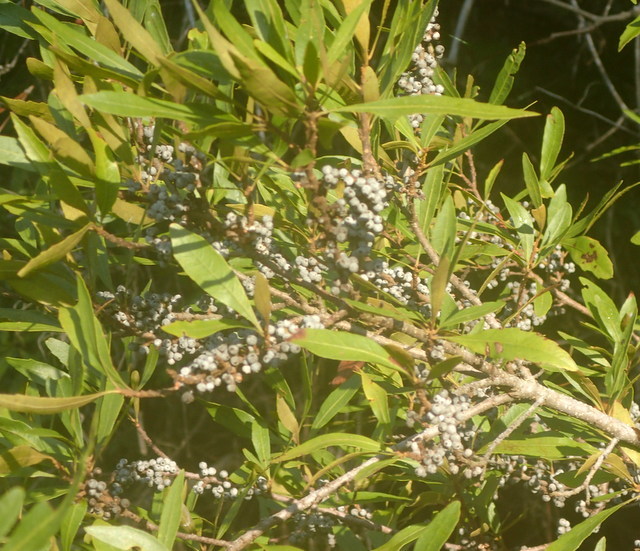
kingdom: Plantae
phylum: Tracheophyta
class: Magnoliopsida
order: Fagales
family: Myricaceae
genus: Morella
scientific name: Morella cerifera
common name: Wax myrtle
